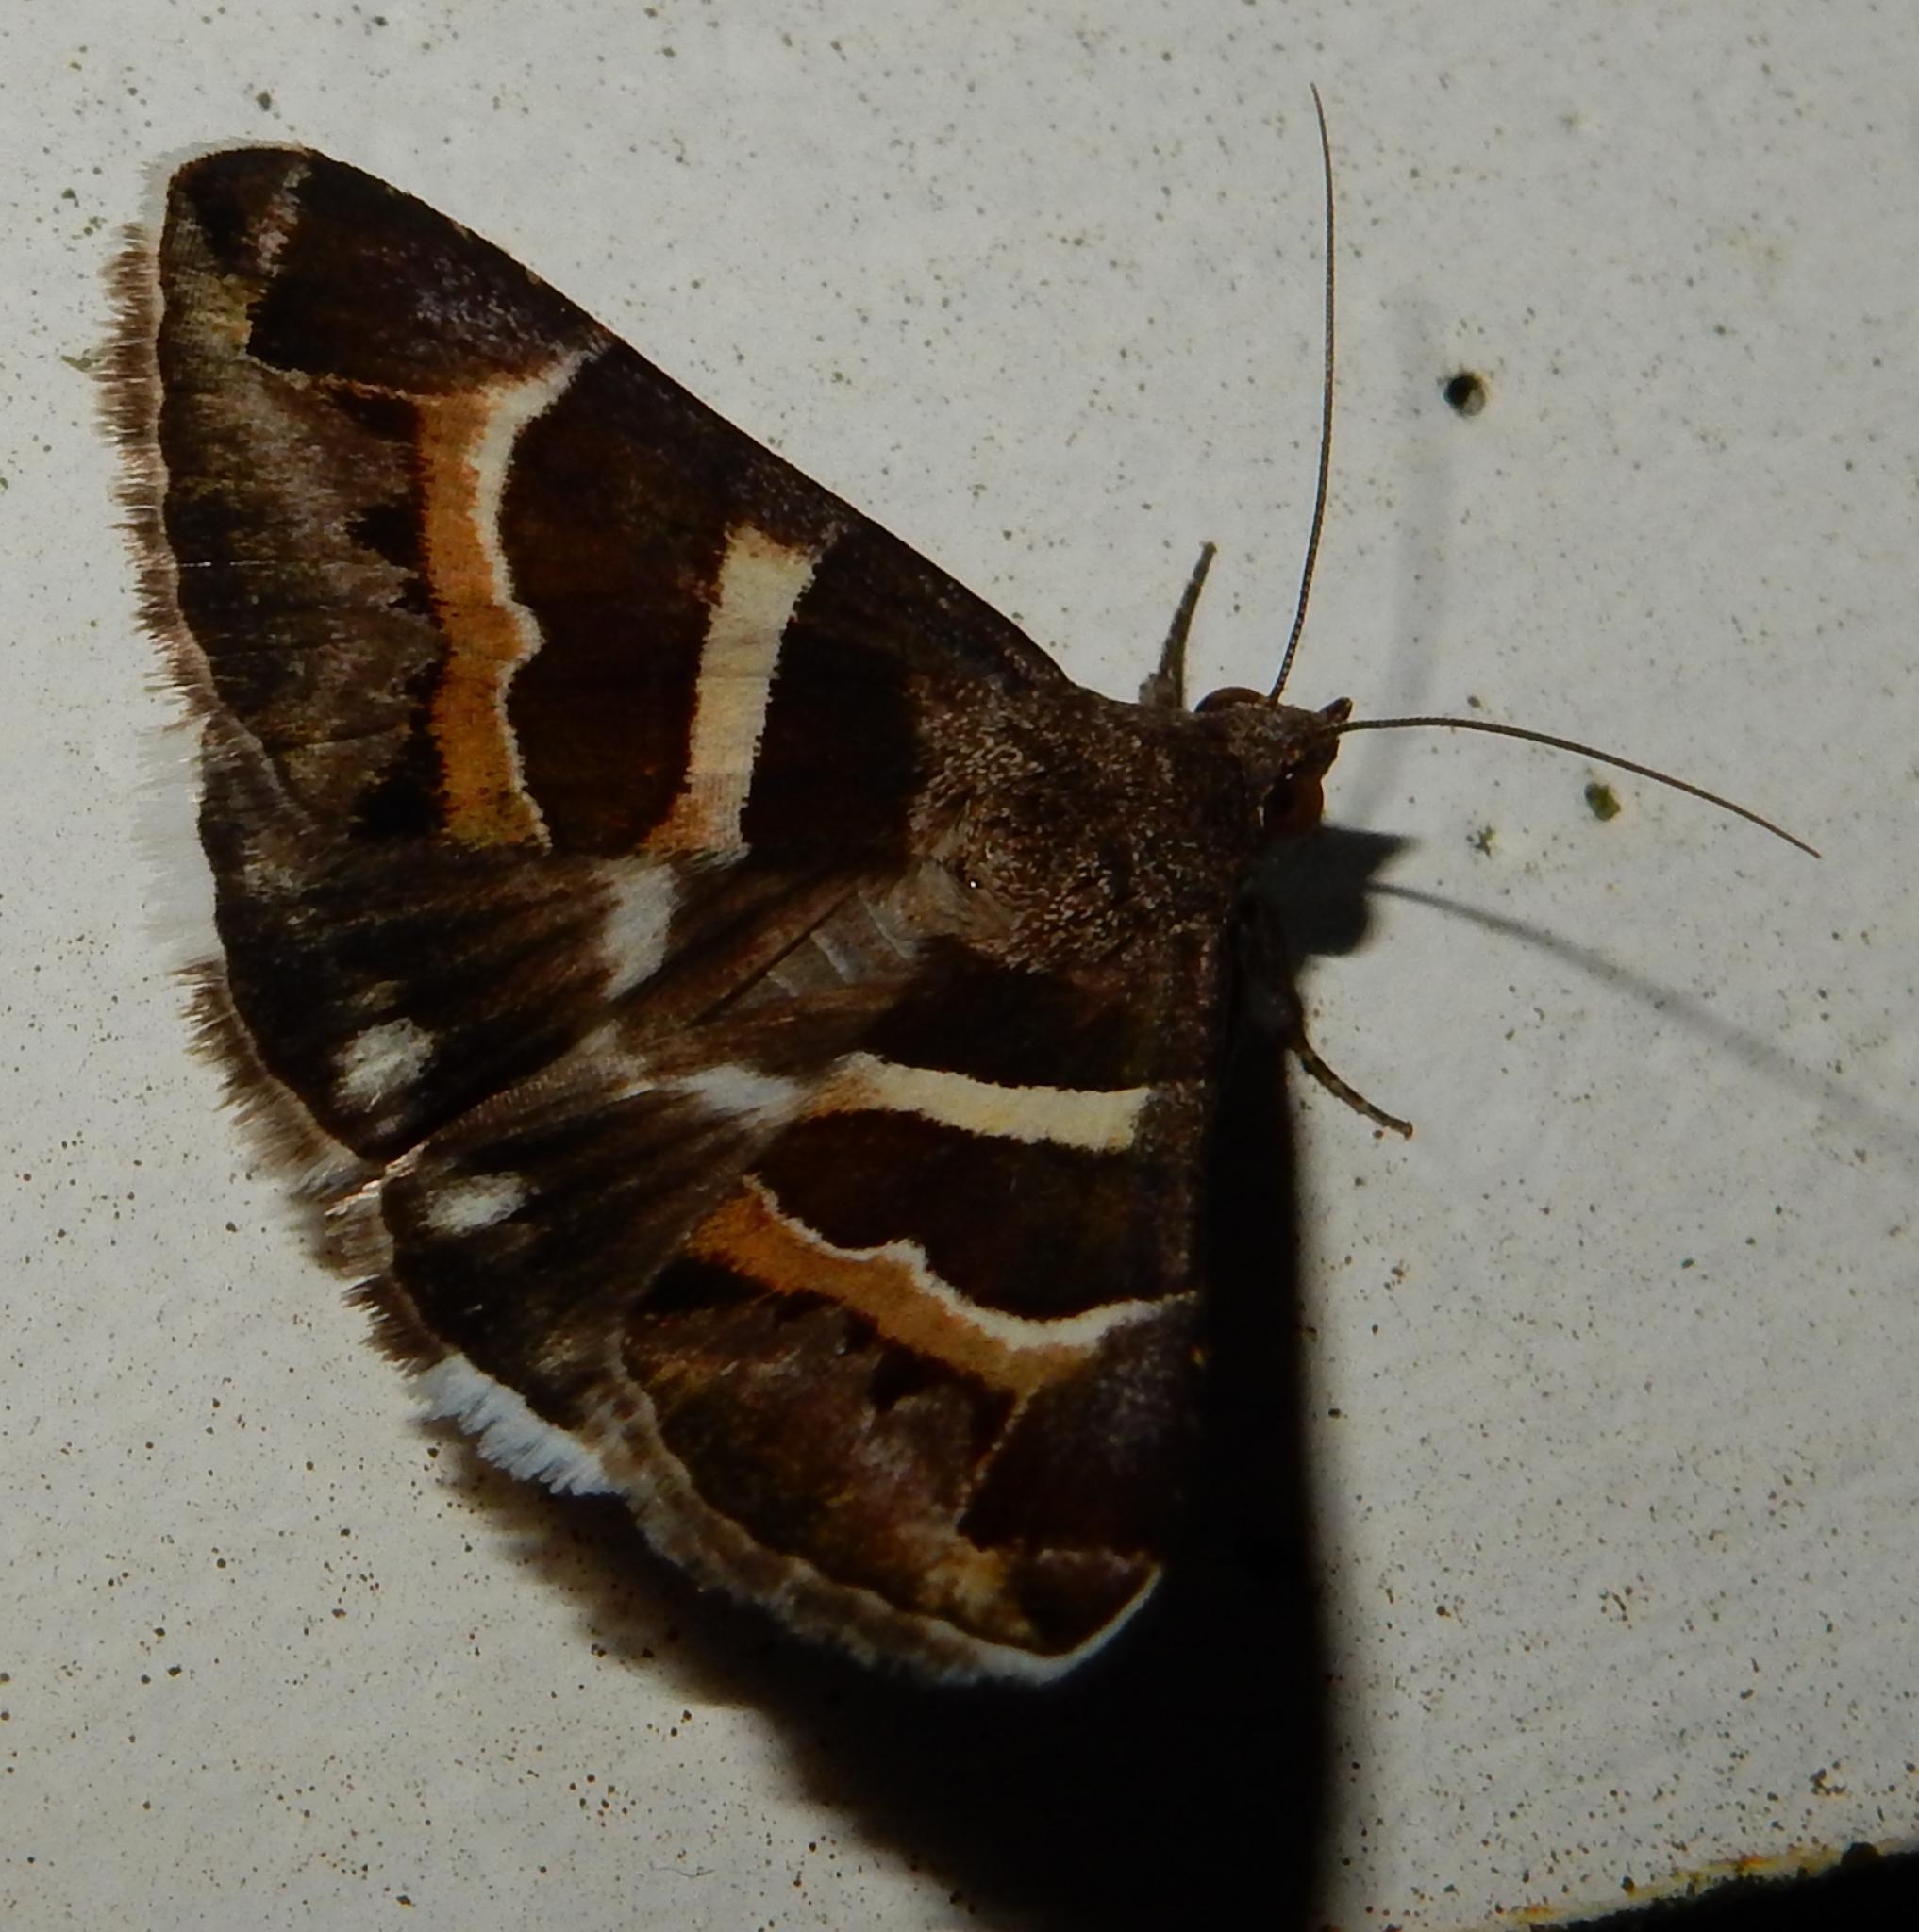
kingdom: Animalia
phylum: Arthropoda
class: Insecta
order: Lepidoptera
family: Erebidae
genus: Grammodes
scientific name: Grammodes stolida
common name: Geometrician
